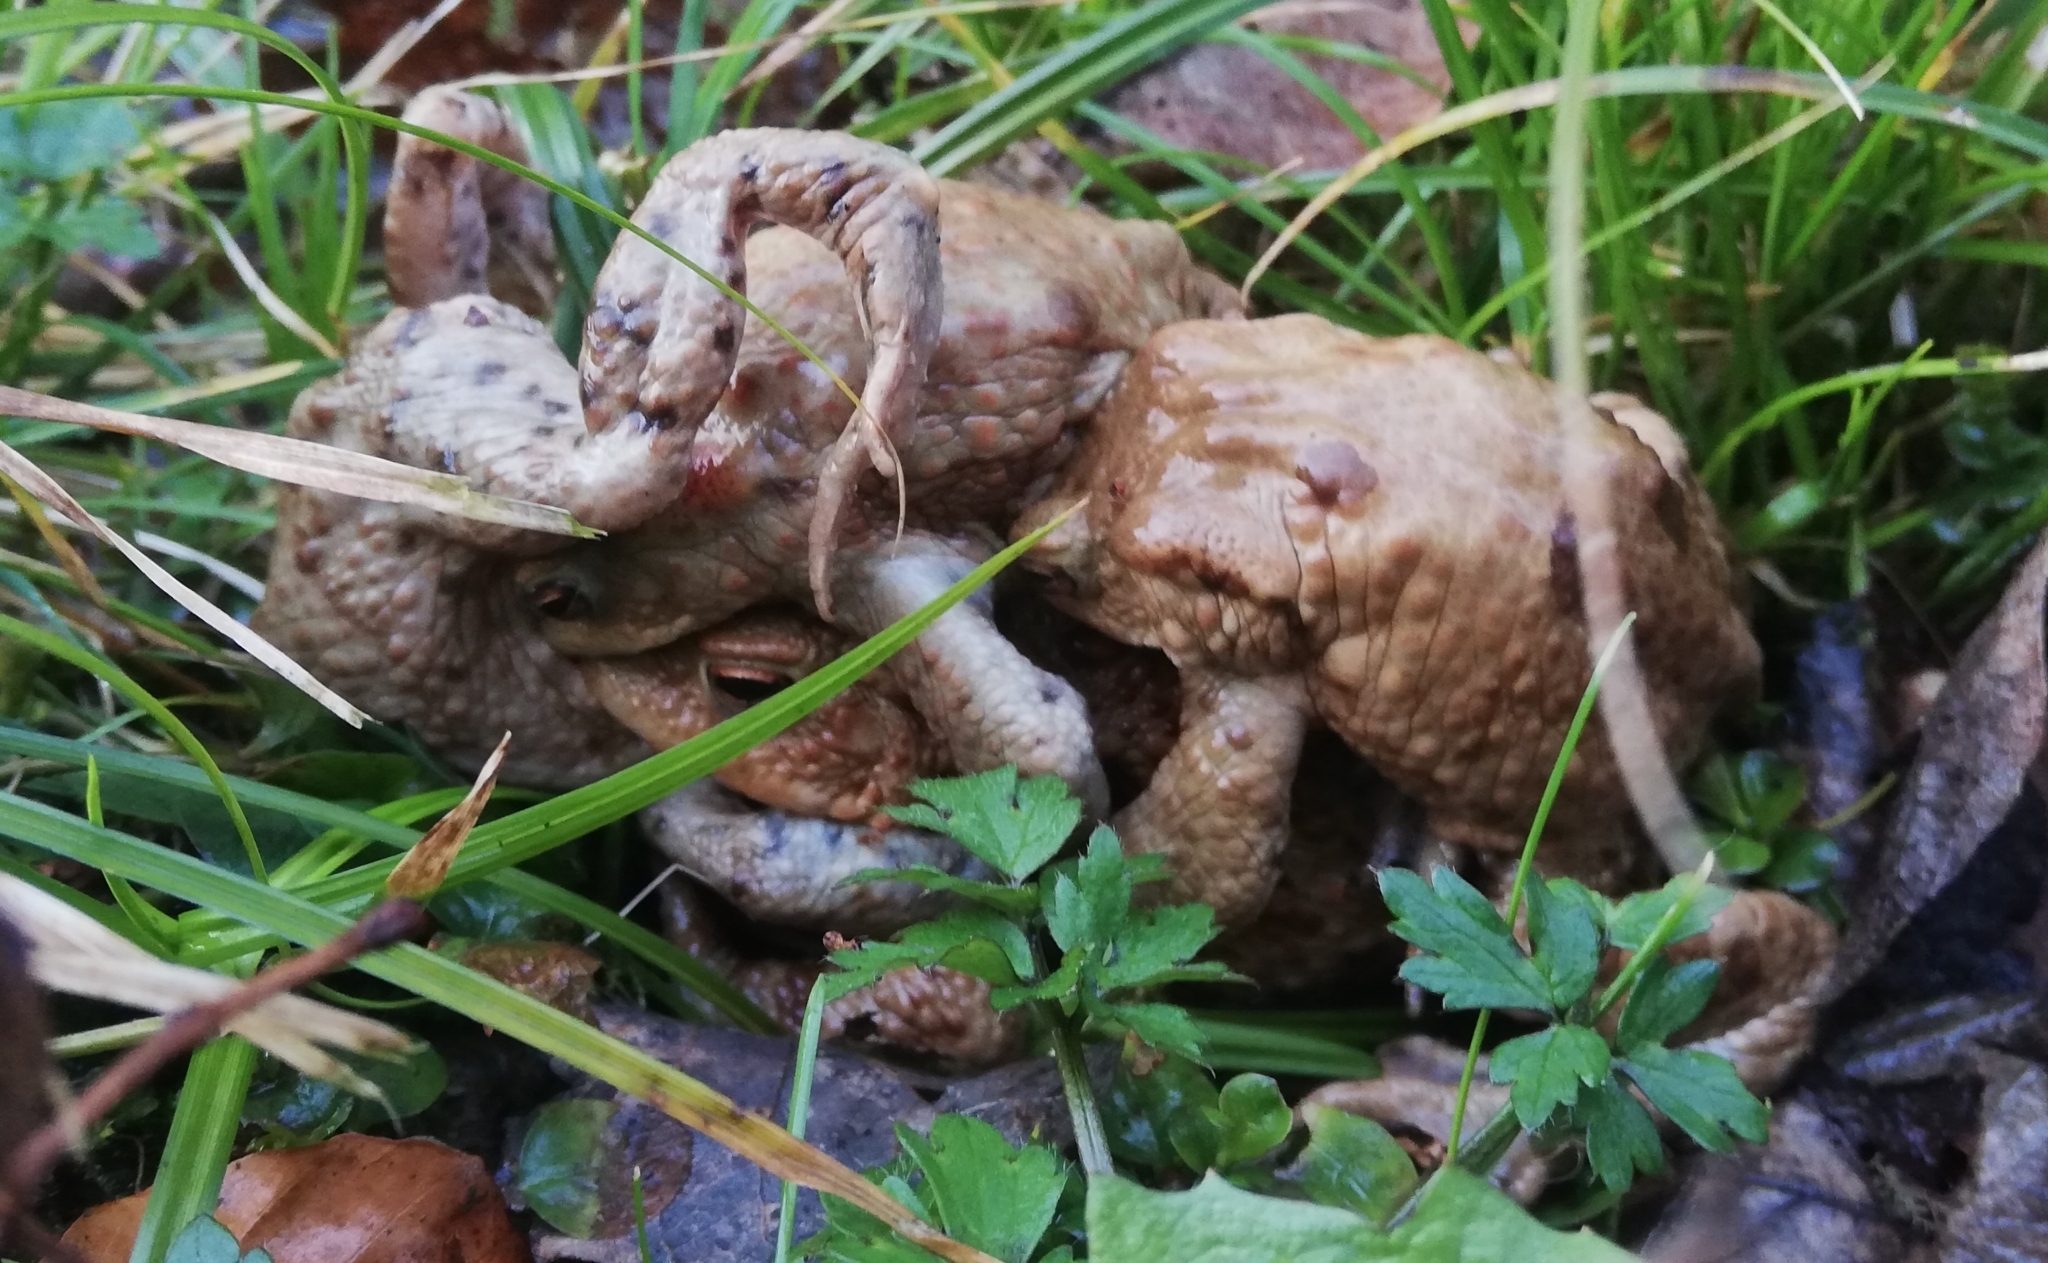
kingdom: Animalia
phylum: Chordata
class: Amphibia
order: Anura
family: Bufonidae
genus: Bufo
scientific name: Bufo bufo
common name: Common toad
